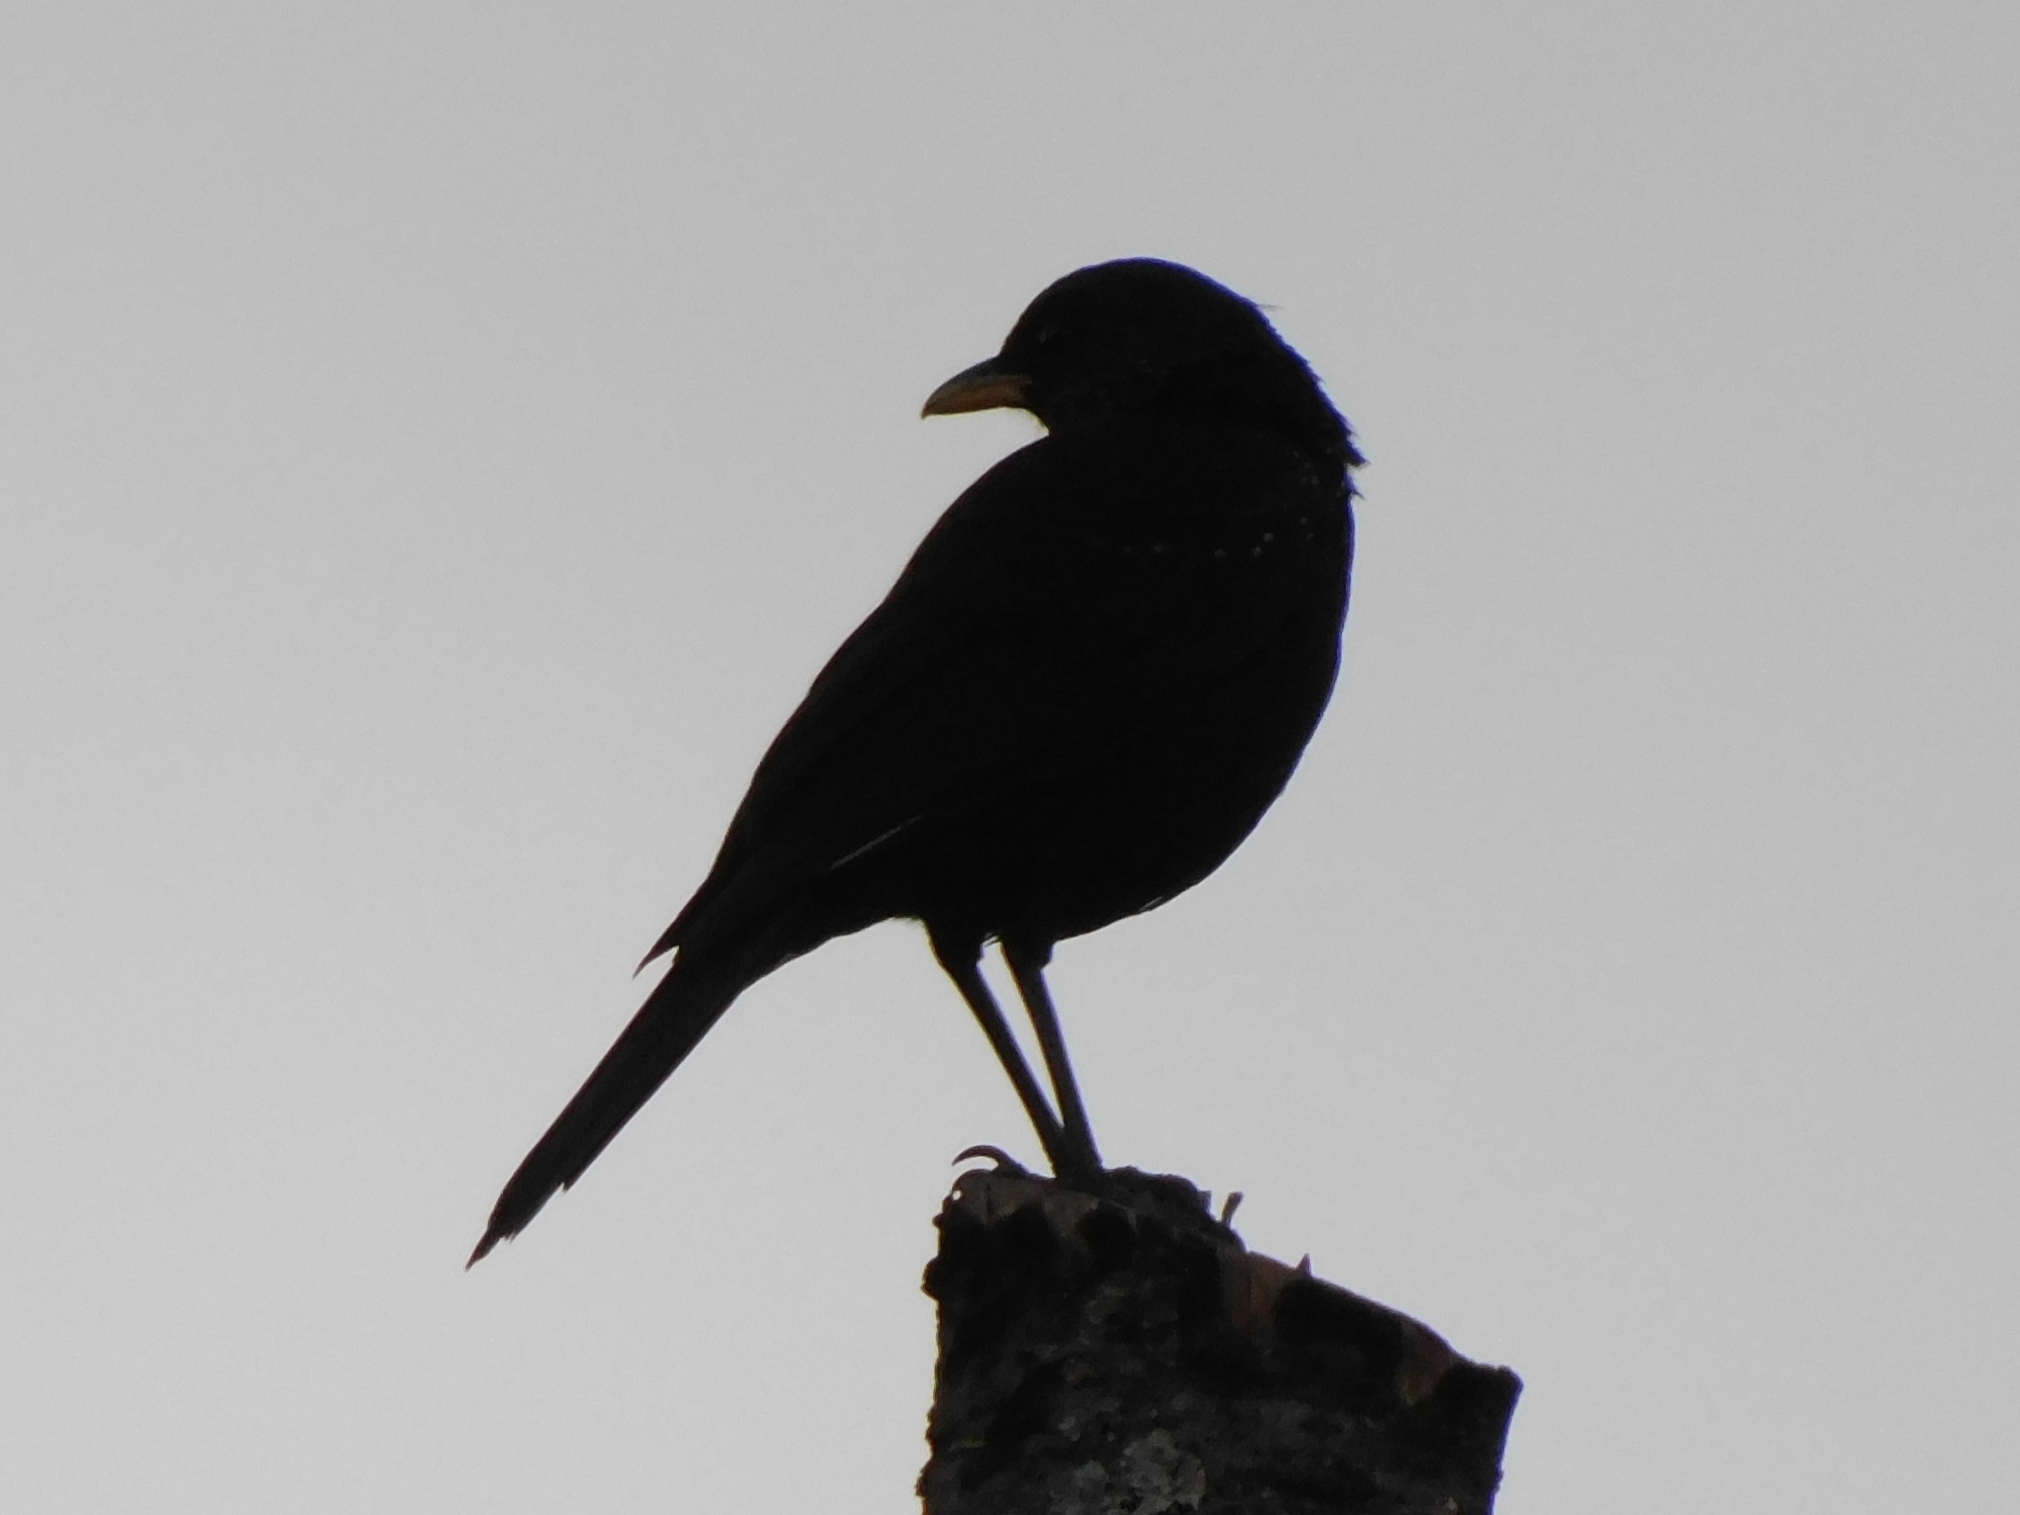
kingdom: Animalia
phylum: Chordata
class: Aves
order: Passeriformes
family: Muscicapidae
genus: Myophonus
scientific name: Myophonus caeruleus
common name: Blue whistling-thrush
